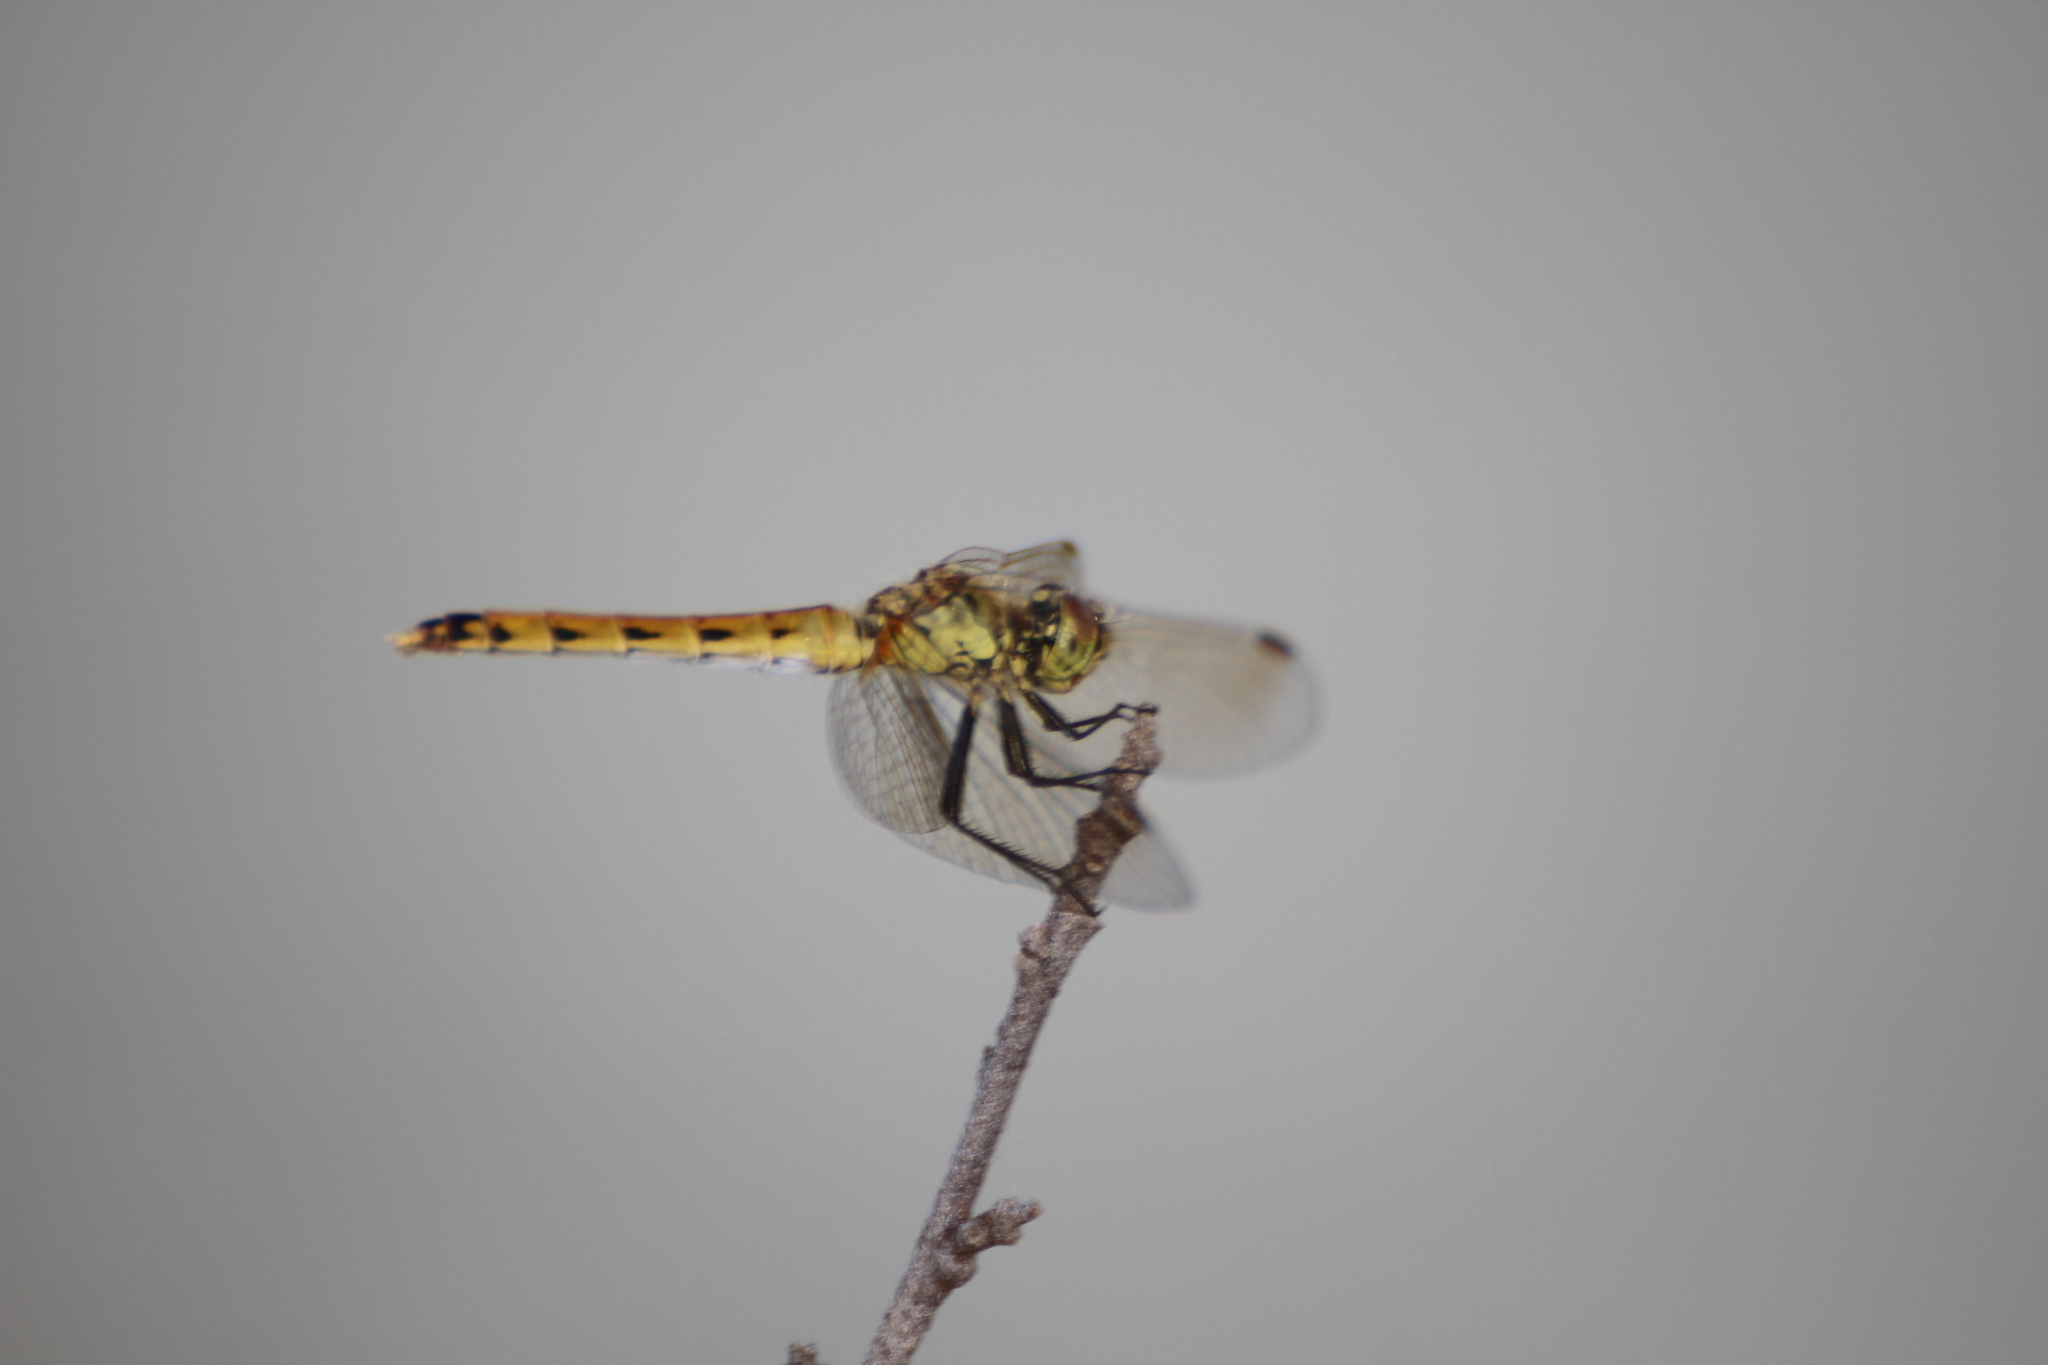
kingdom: Animalia
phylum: Arthropoda
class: Insecta
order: Odonata
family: Libellulidae
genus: Sympetrum
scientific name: Sympetrum depressiusculum
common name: Spotted darter
